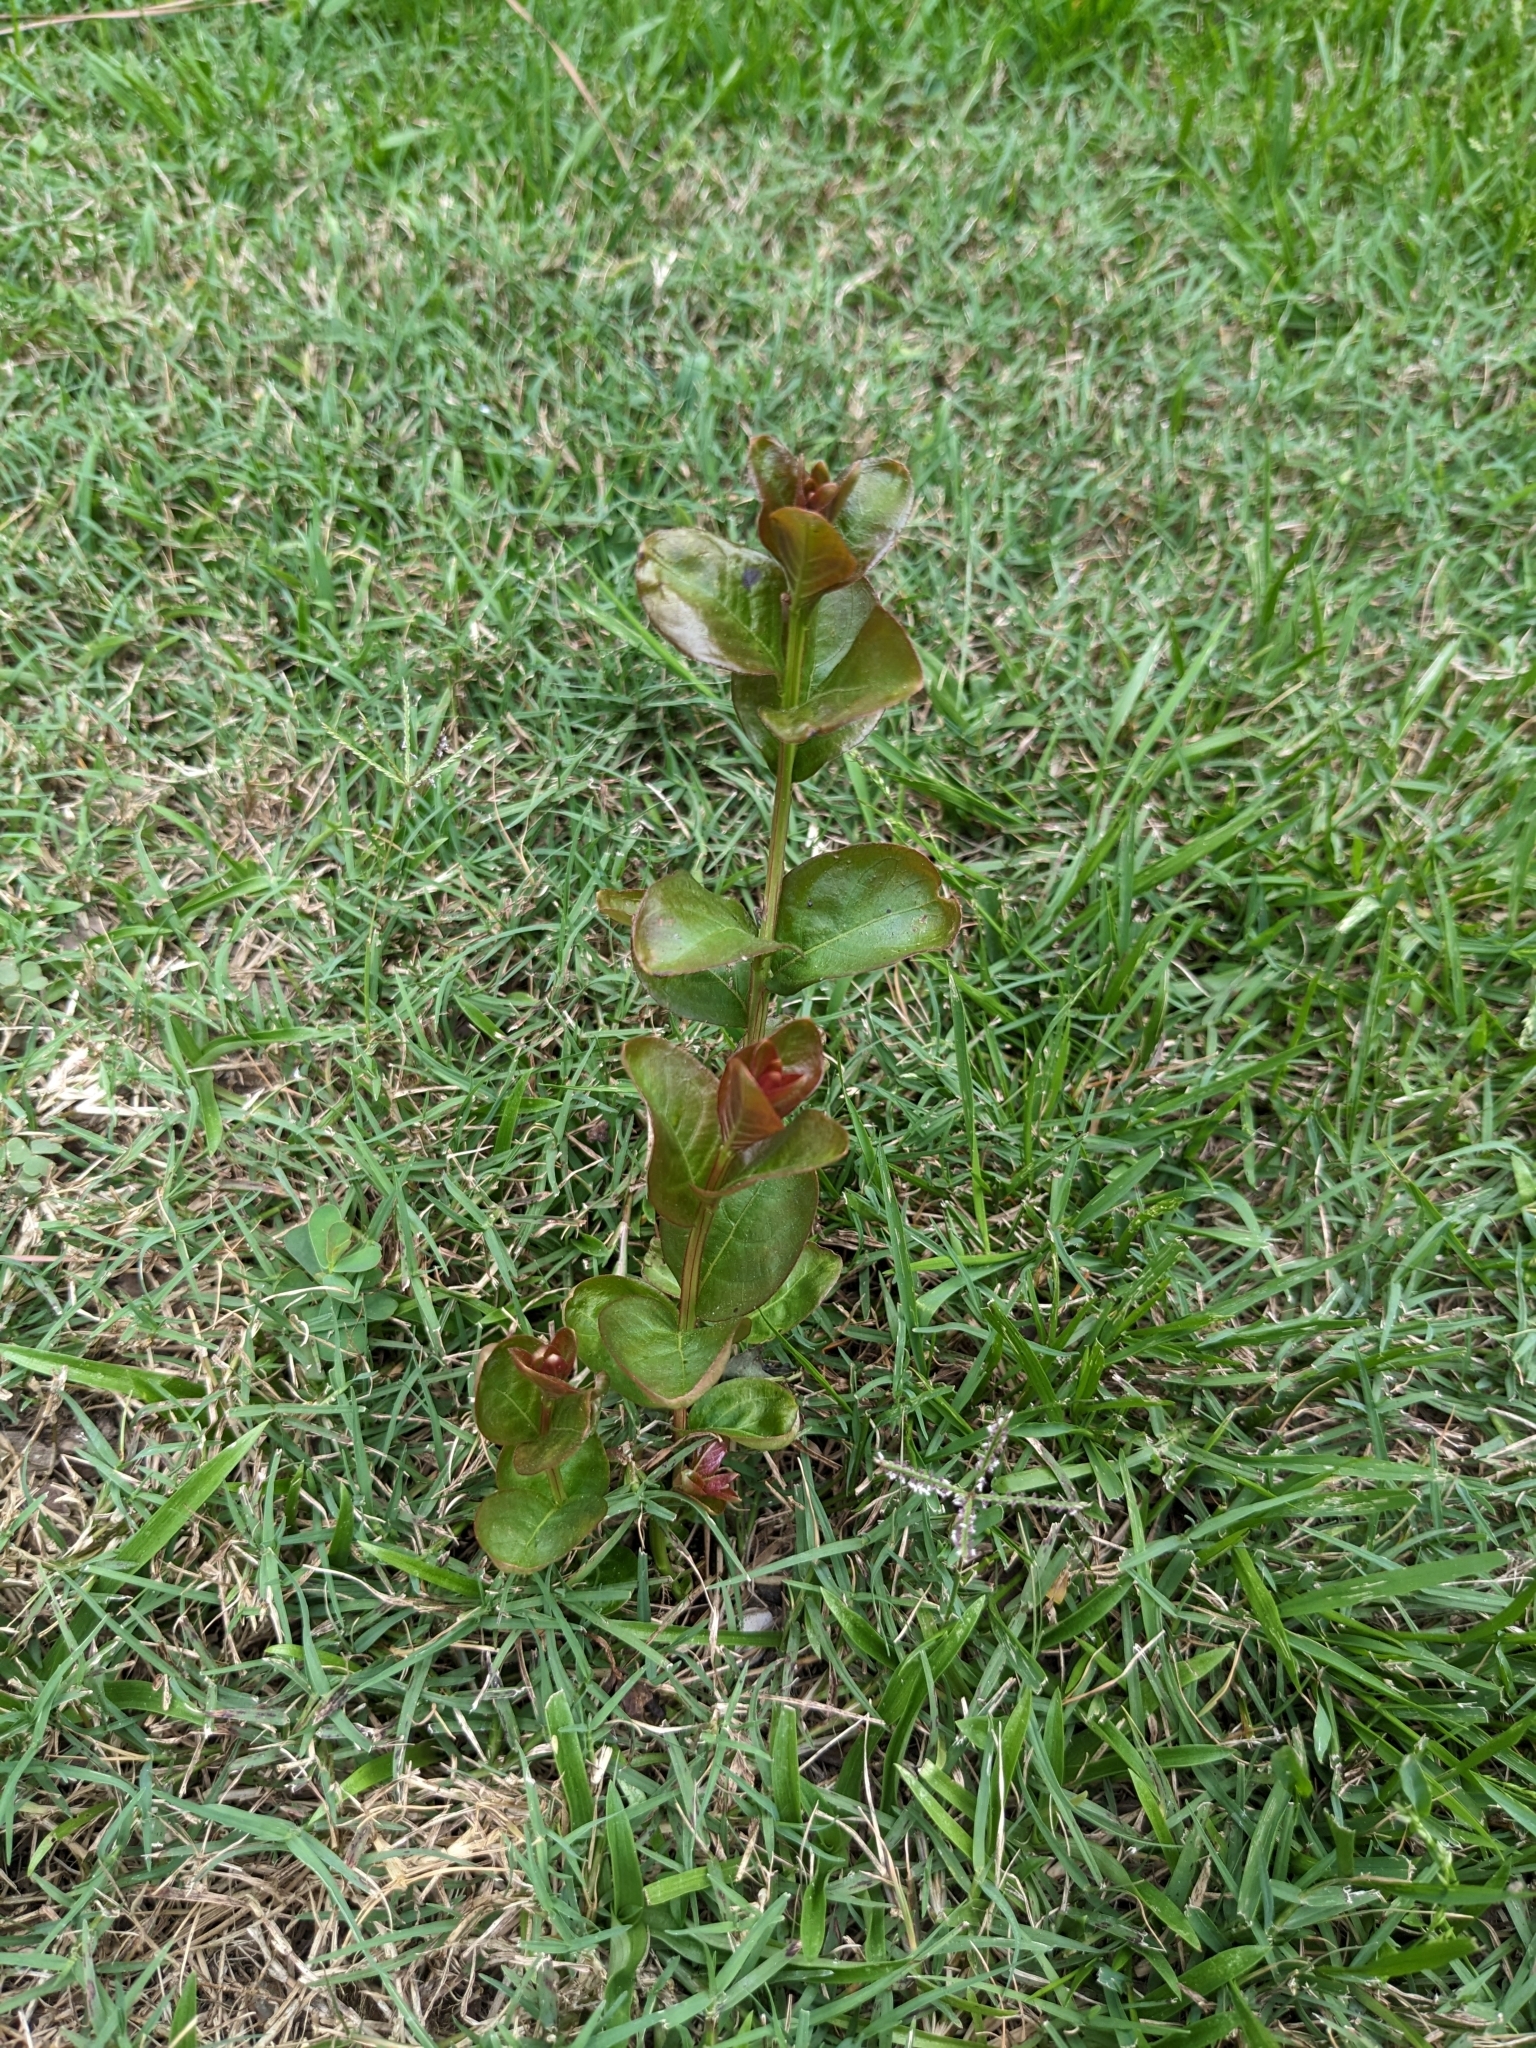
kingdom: Plantae
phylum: Tracheophyta
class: Magnoliopsida
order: Myrtales
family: Lythraceae
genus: Lagerstroemia
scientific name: Lagerstroemia indica
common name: Crape-myrtle
